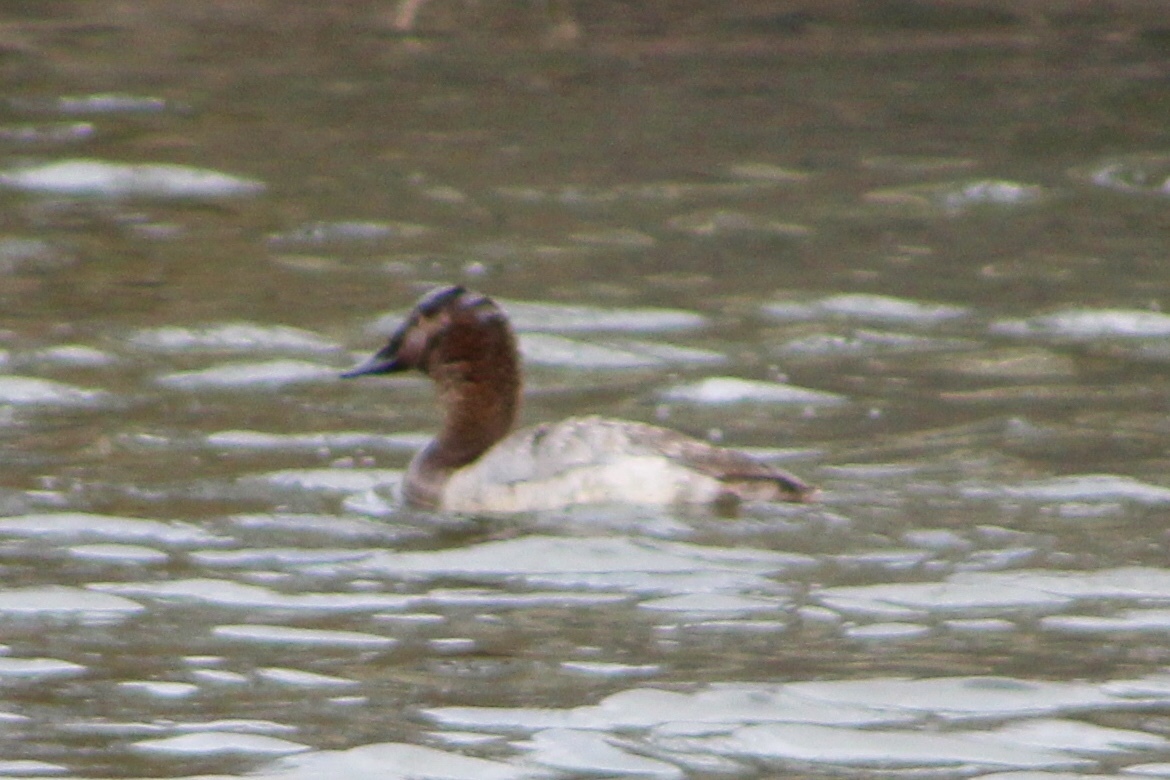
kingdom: Animalia
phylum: Chordata
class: Aves
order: Anseriformes
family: Anatidae
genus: Aythya
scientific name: Aythya valisineria
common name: Canvasback
